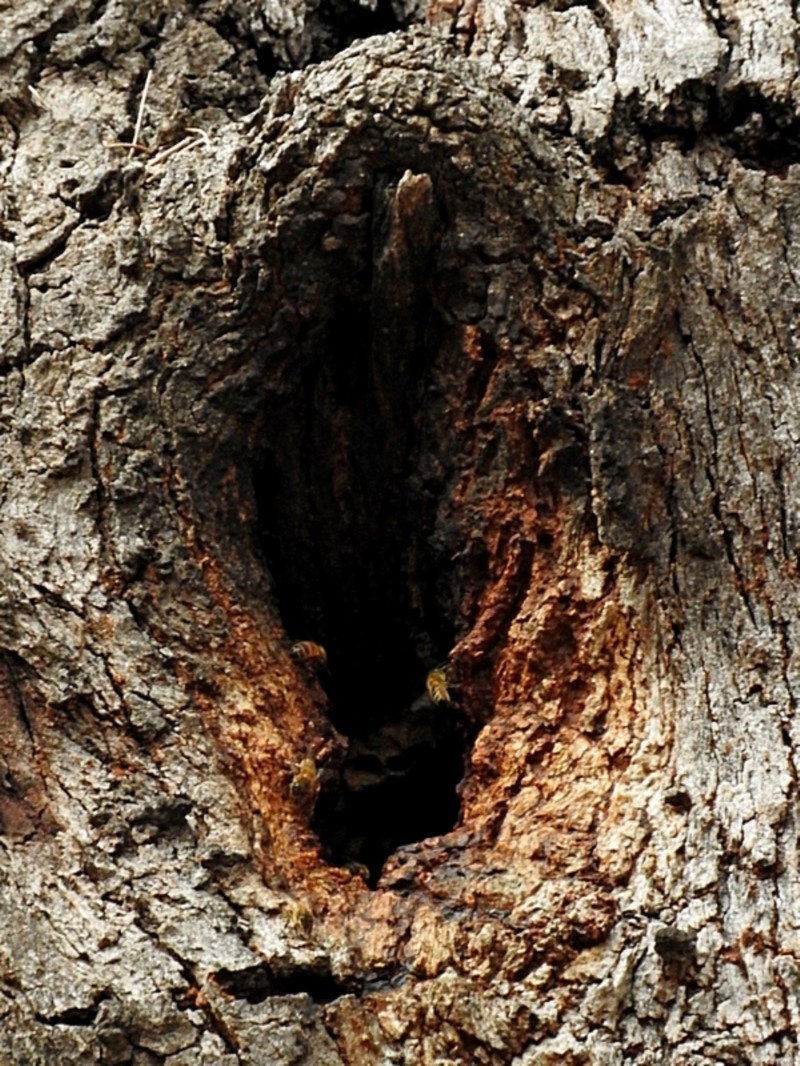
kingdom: Animalia
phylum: Arthropoda
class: Insecta
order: Hymenoptera
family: Apidae
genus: Apis
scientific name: Apis mellifera
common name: Honey bee
